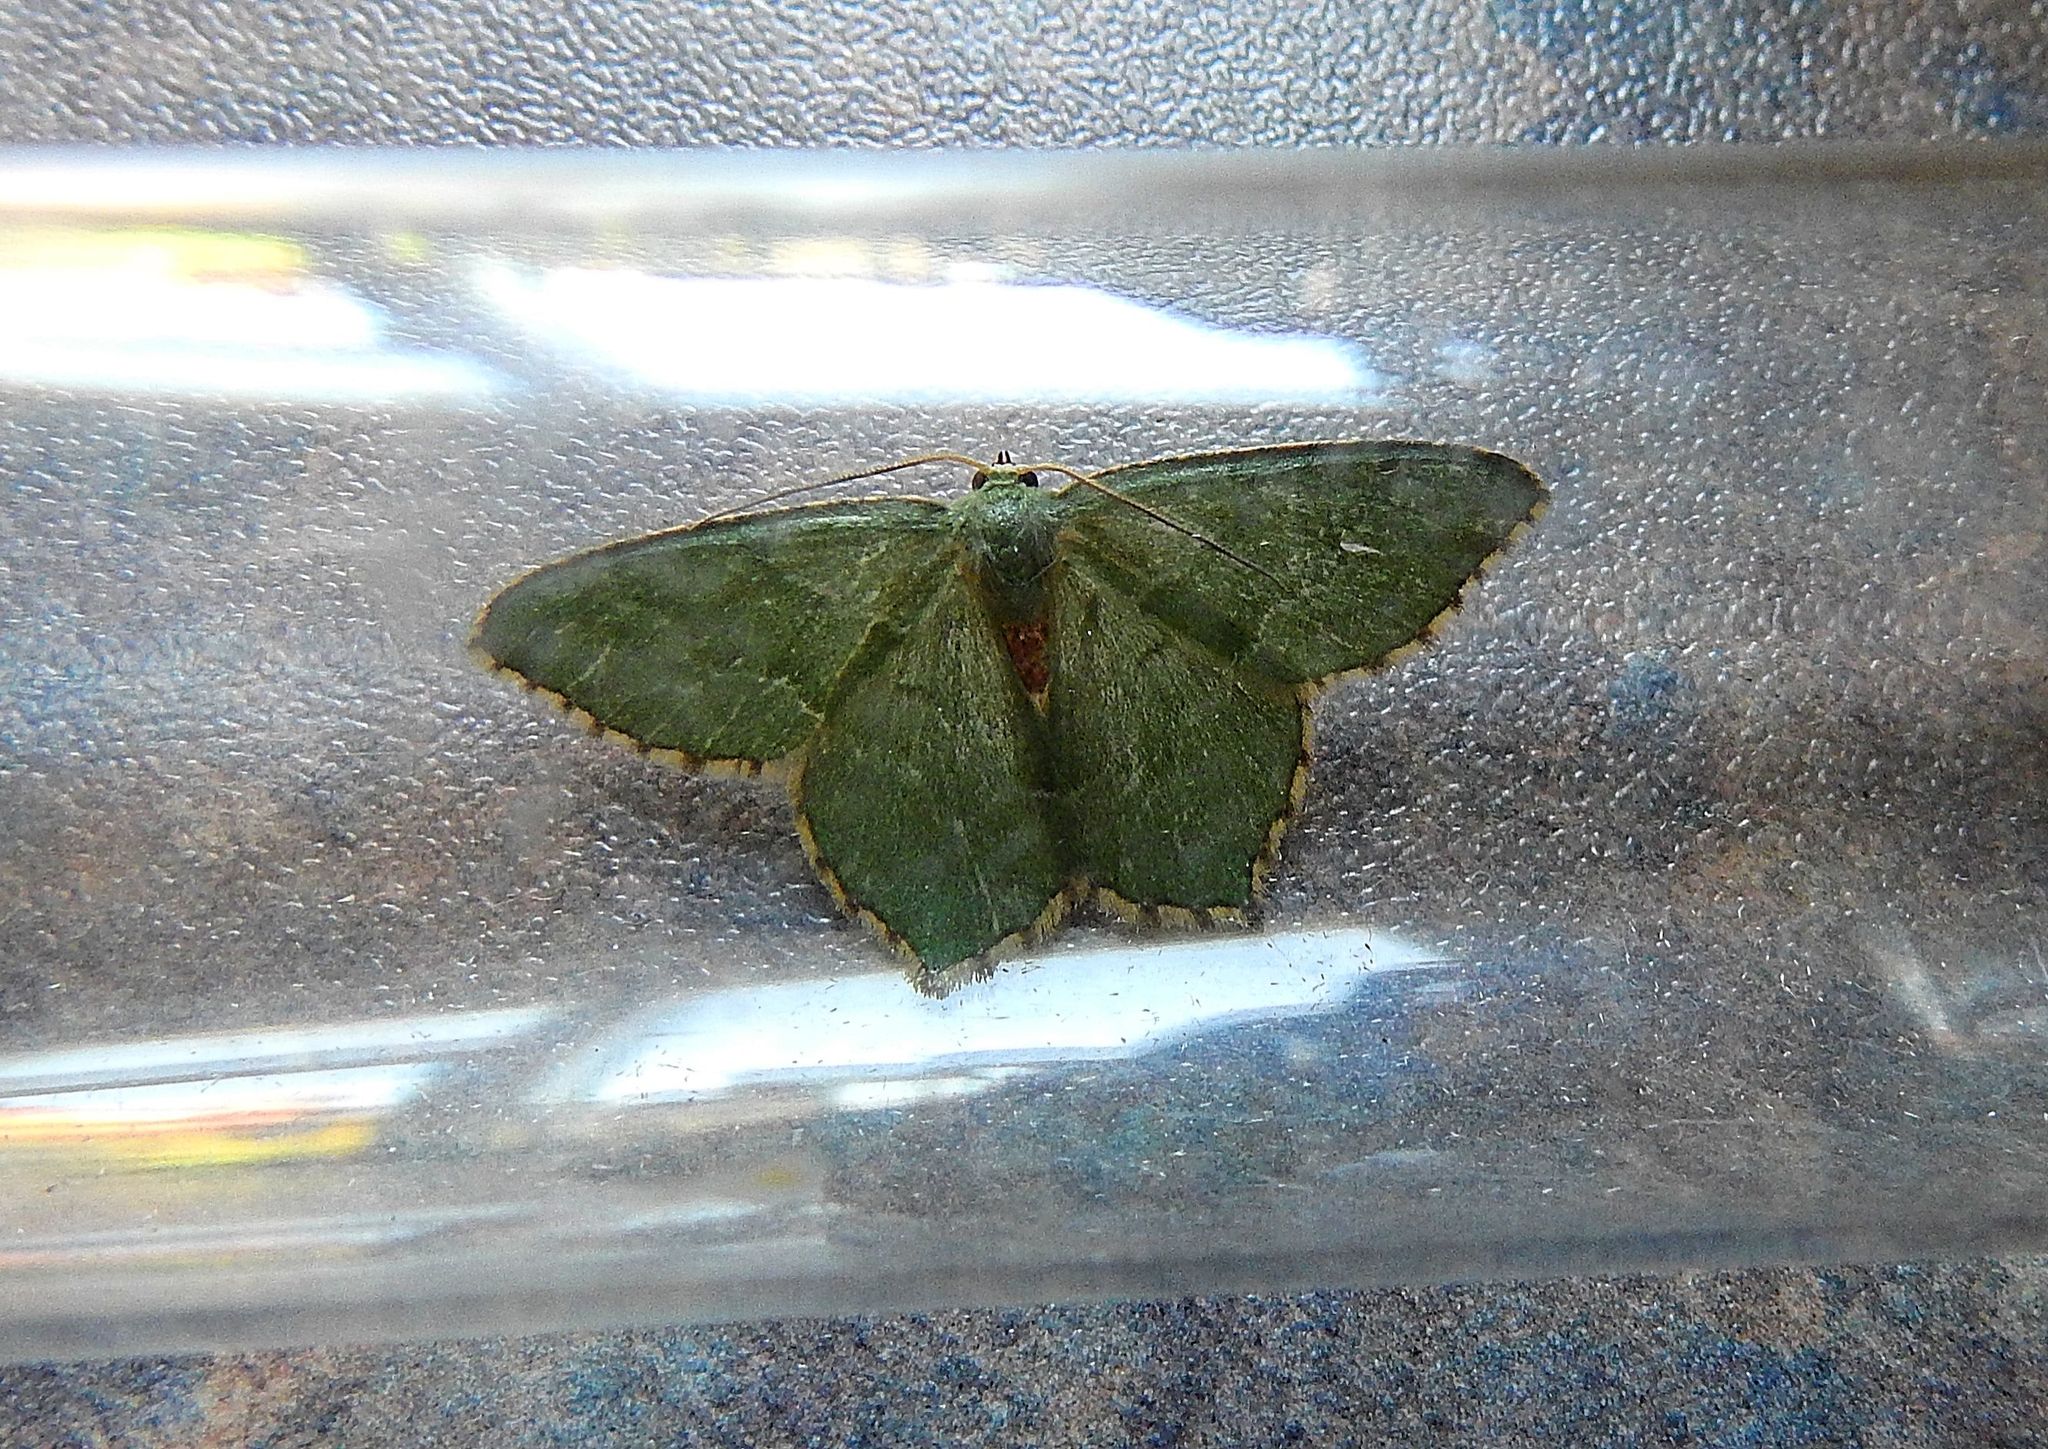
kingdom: Animalia
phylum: Arthropoda
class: Insecta
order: Lepidoptera
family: Geometridae
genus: Hemithea
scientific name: Hemithea aestivaria
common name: Common emerald
